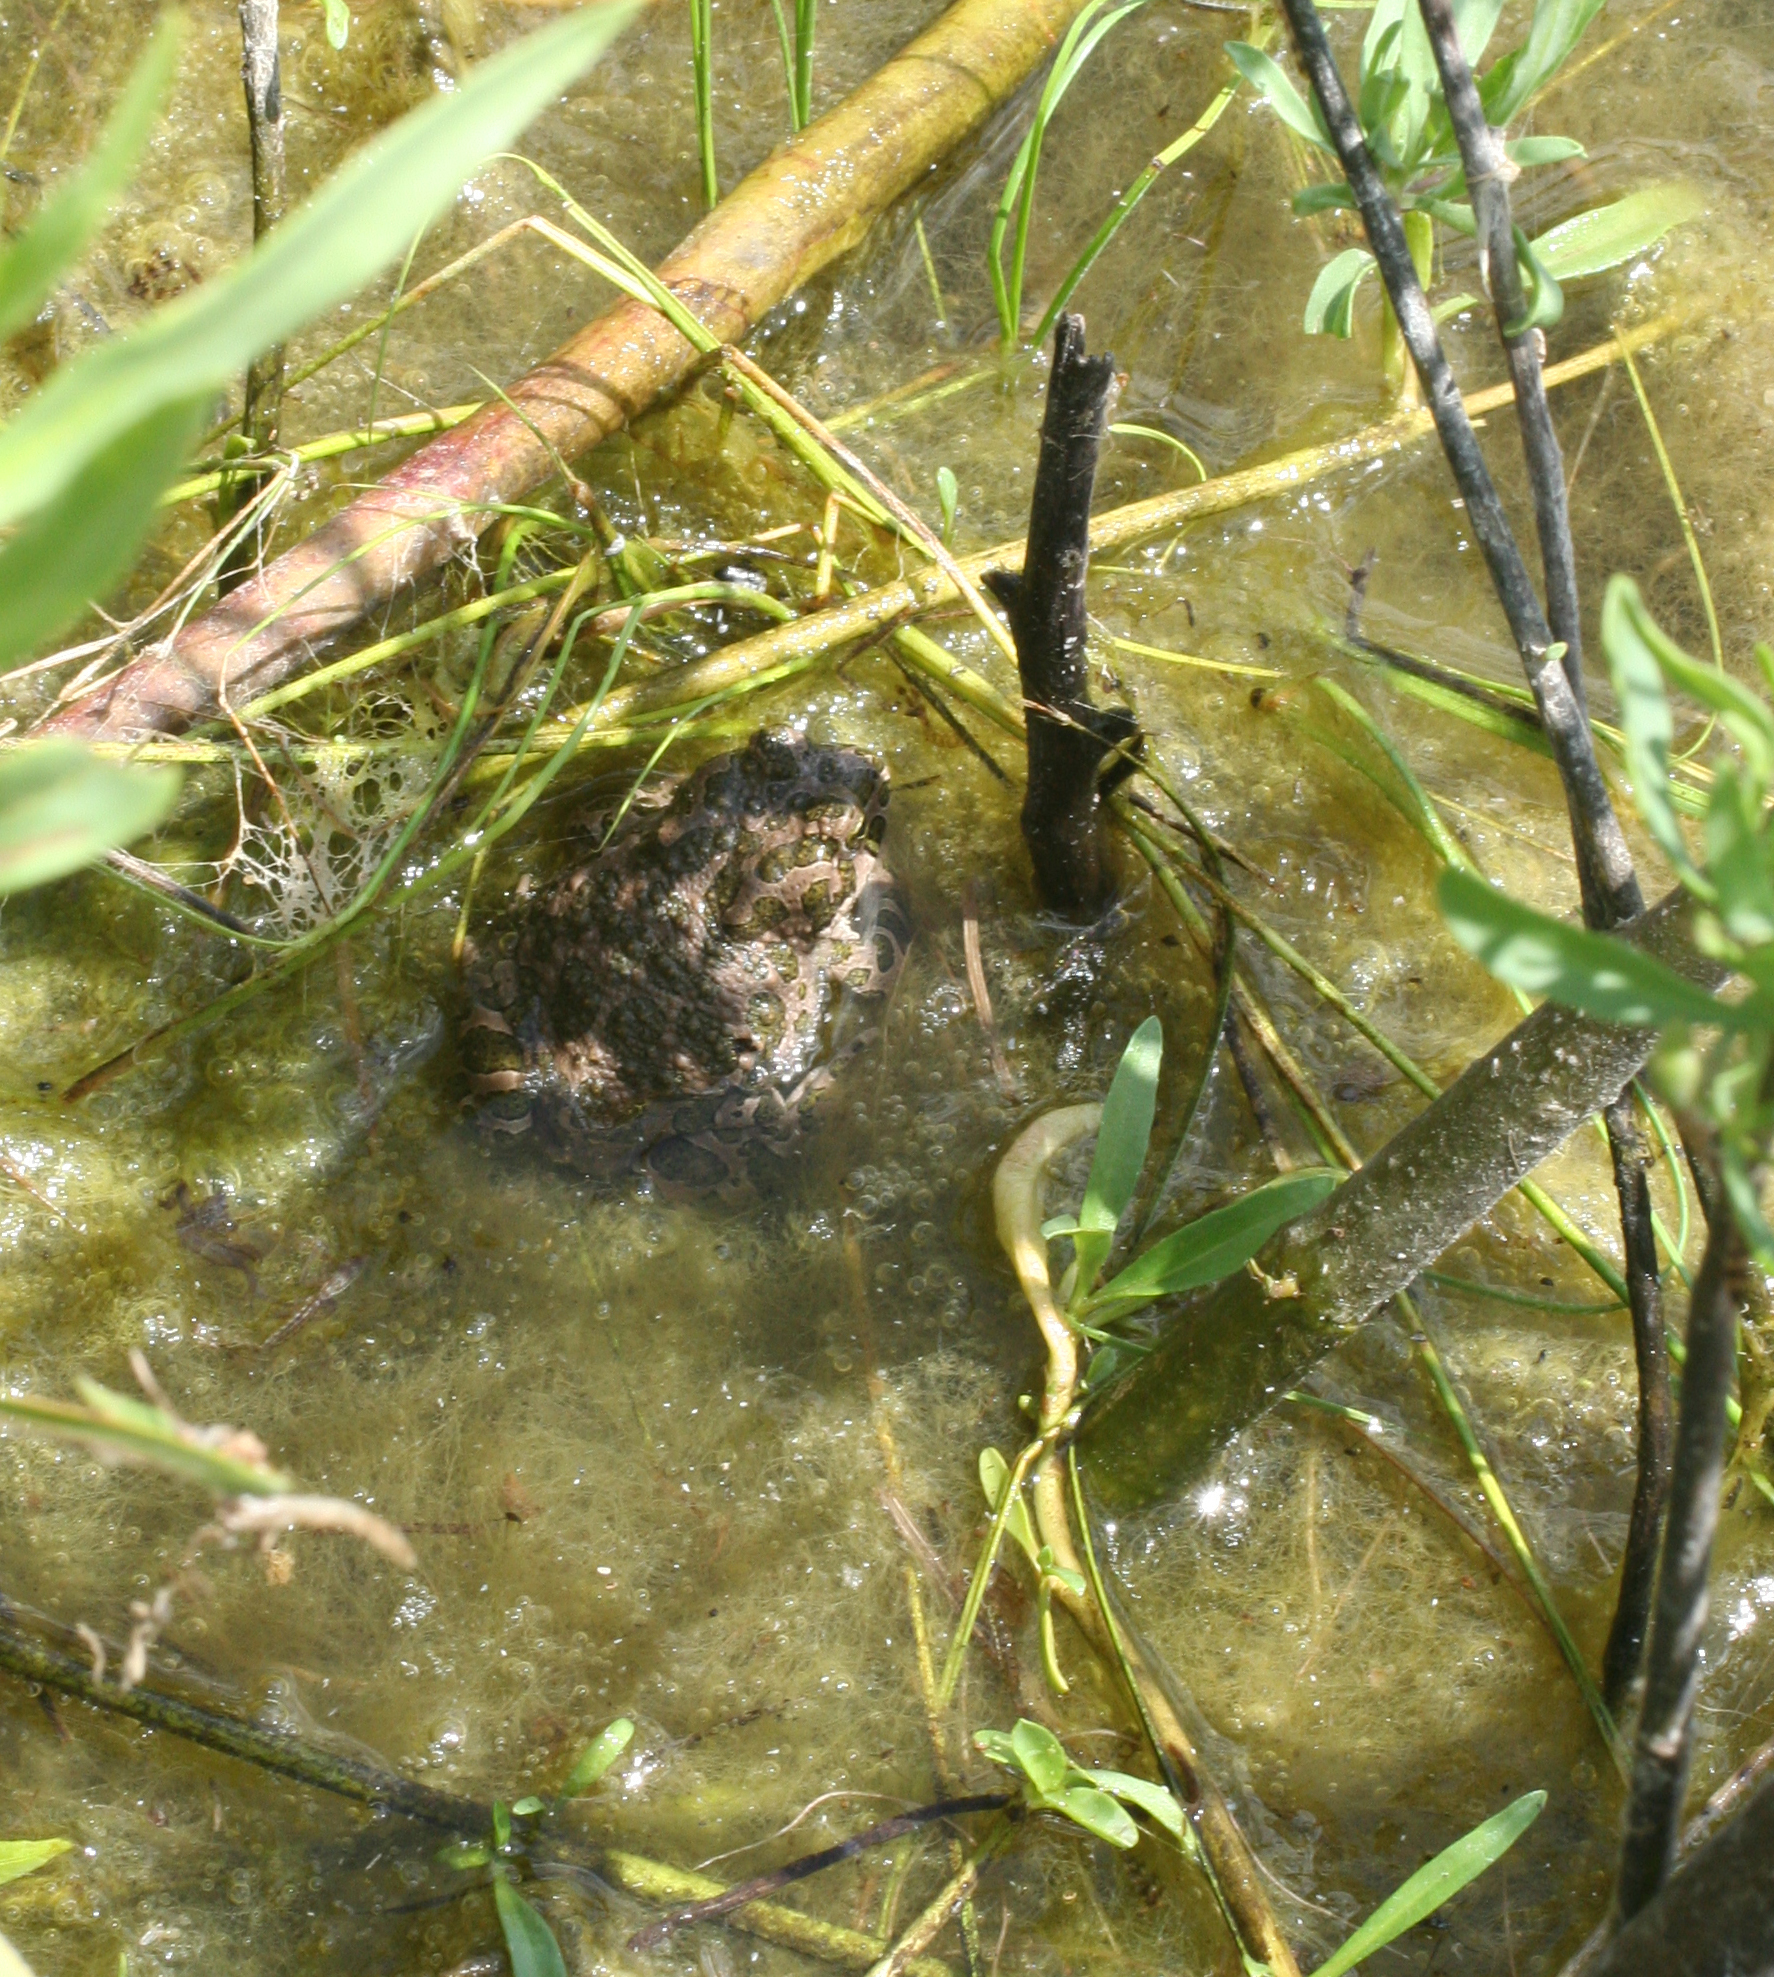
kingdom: Animalia
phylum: Chordata
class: Amphibia
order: Anura
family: Bufonidae
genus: Bufotes
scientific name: Bufotes viridis
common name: European green toad
